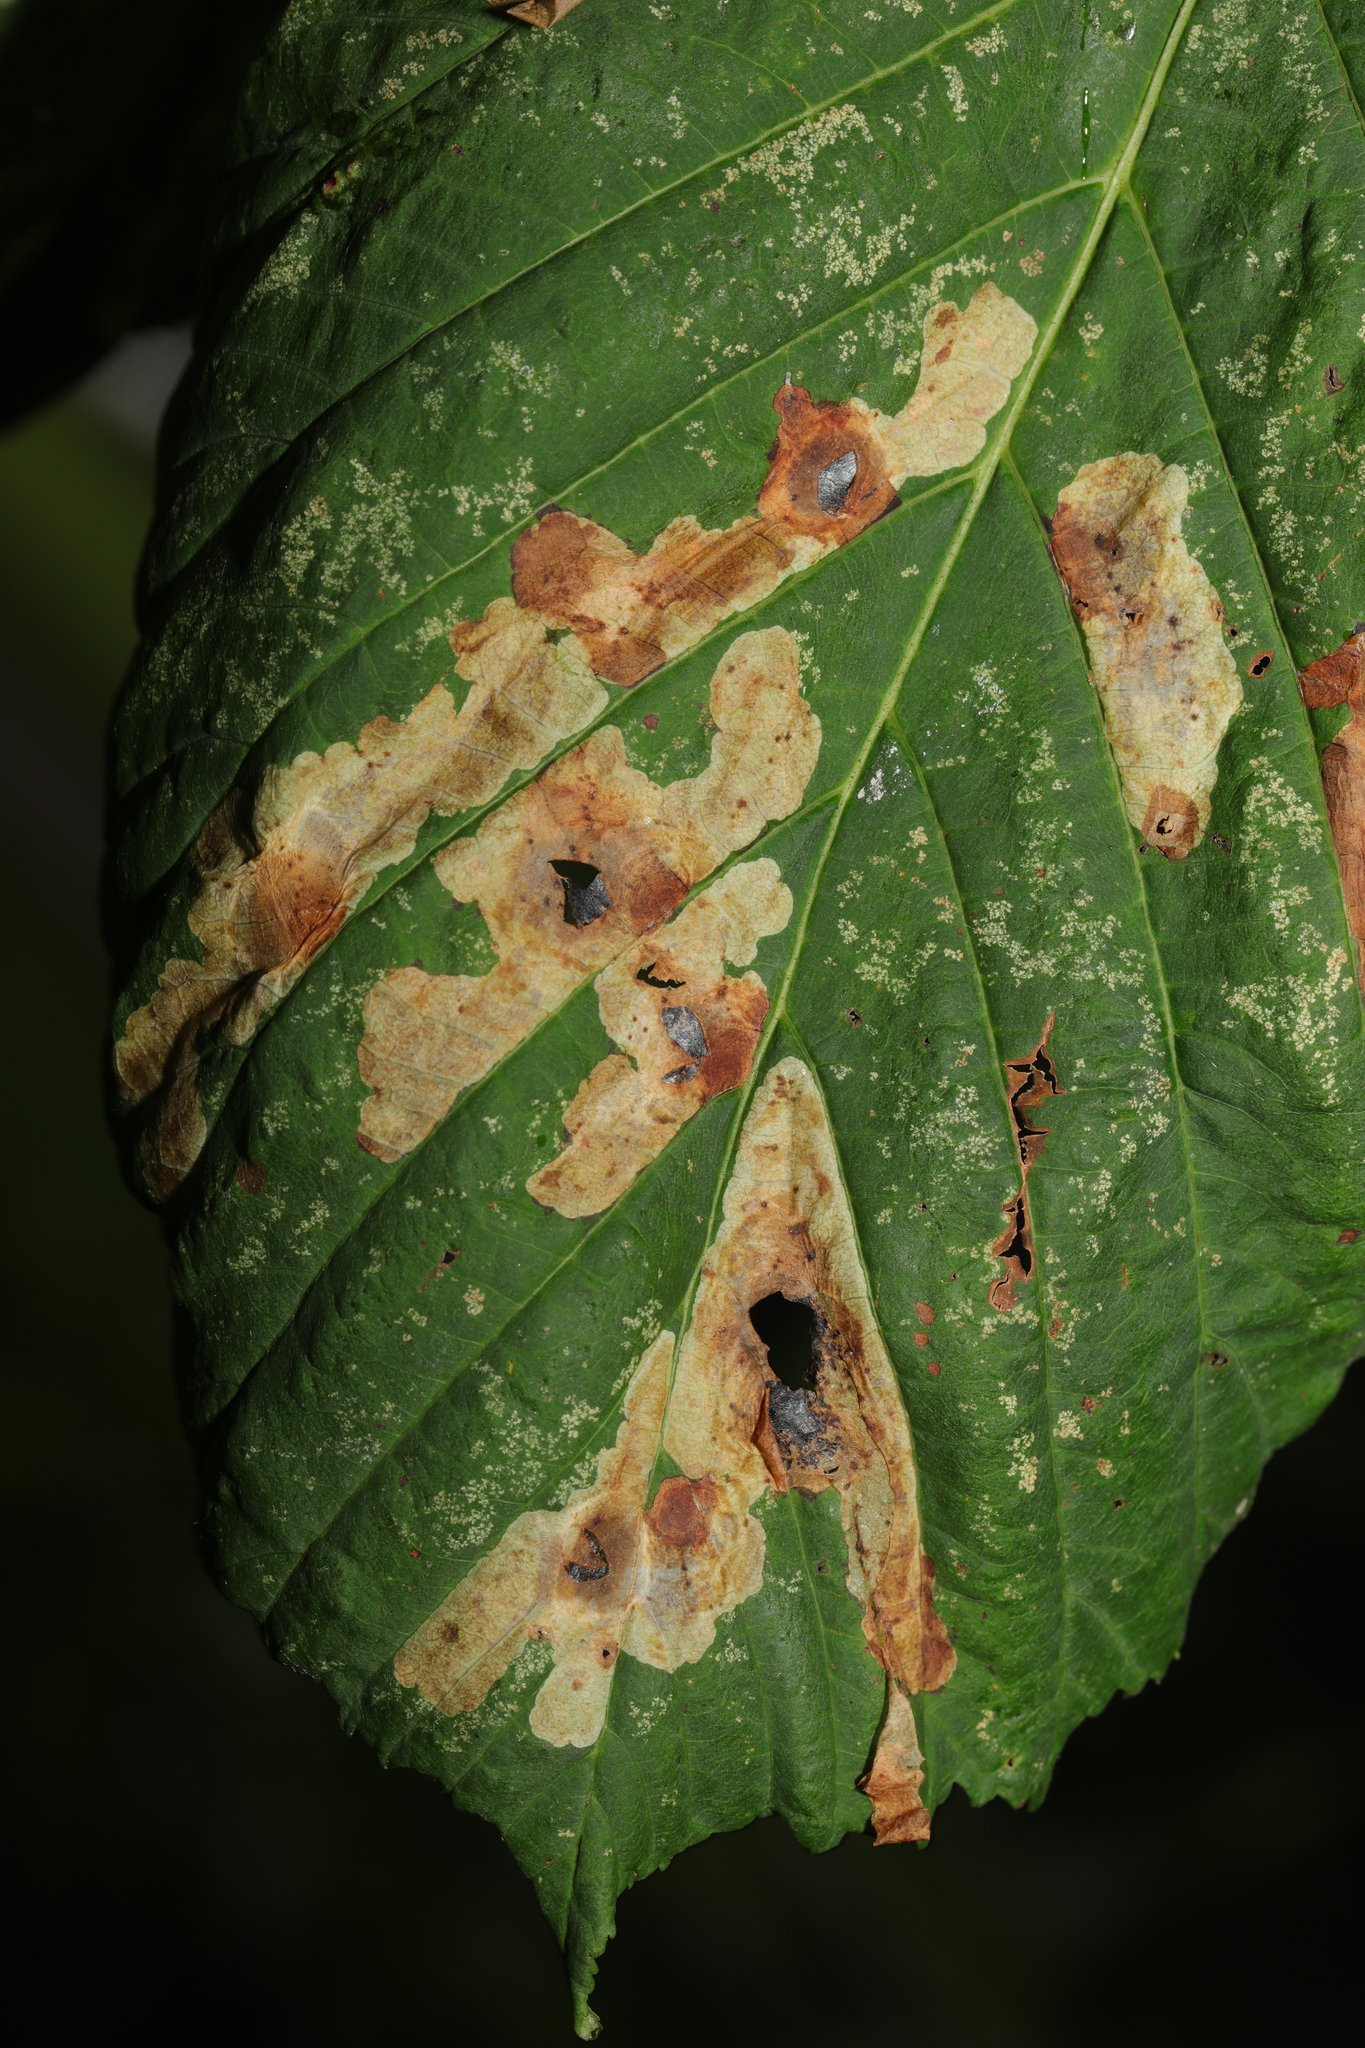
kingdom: Animalia
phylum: Arthropoda
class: Insecta
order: Lepidoptera
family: Gracillariidae
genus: Cameraria
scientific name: Cameraria ohridella
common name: Horse-chestnut leaf-miner
